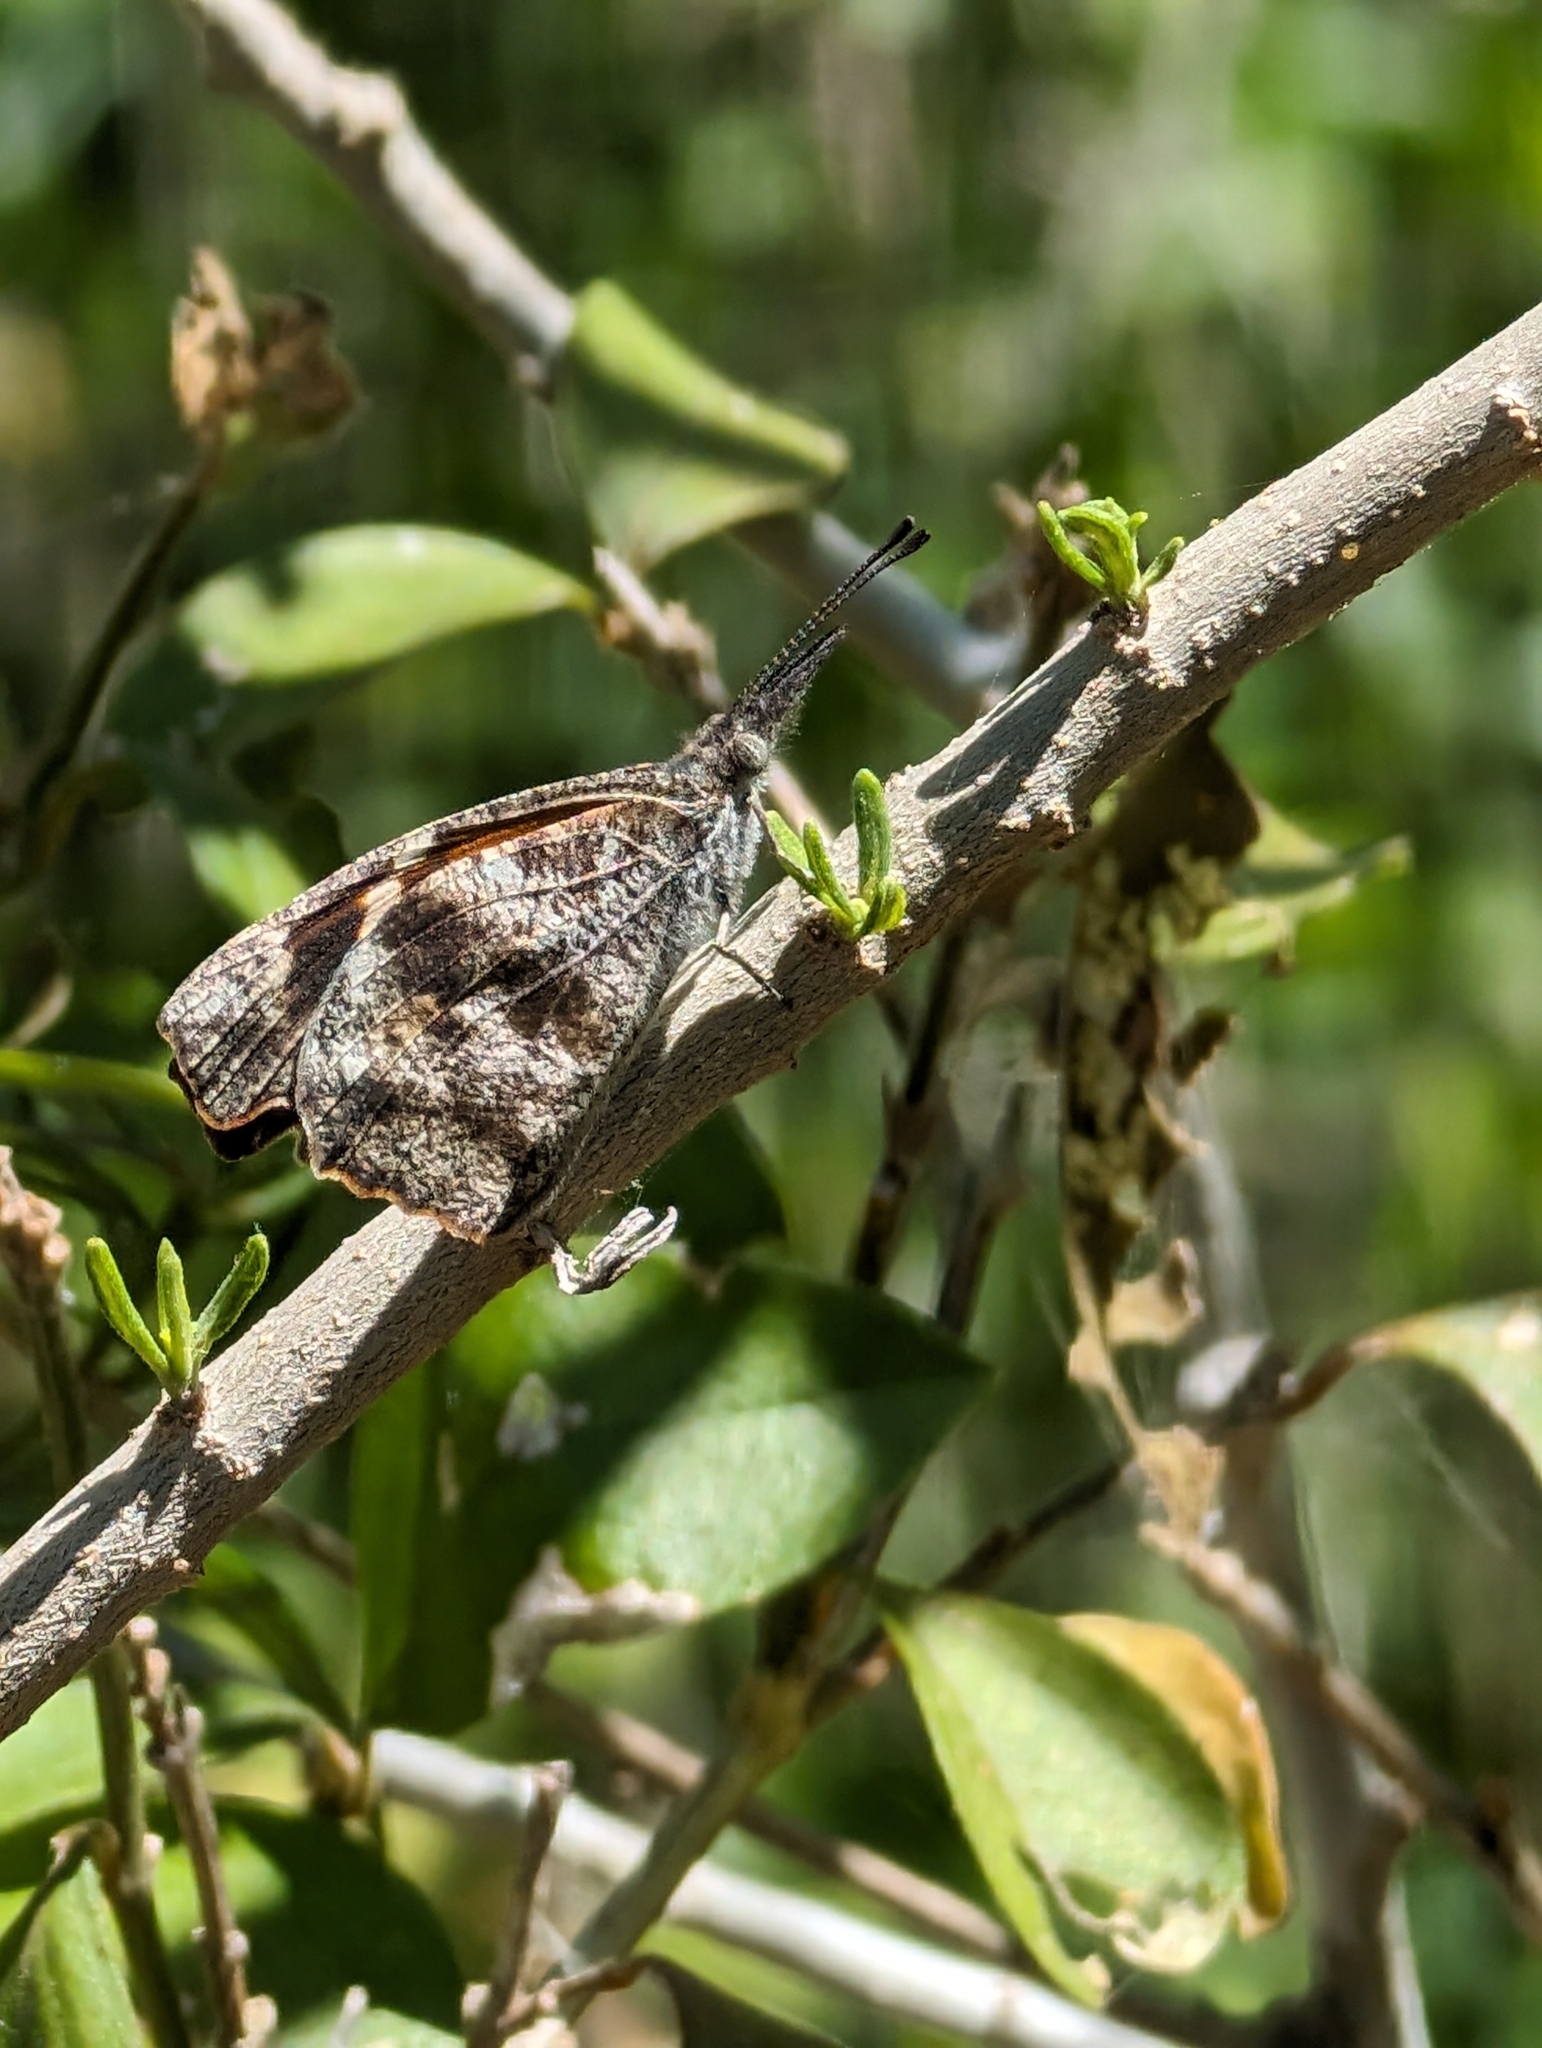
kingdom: Animalia
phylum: Arthropoda
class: Insecta
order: Lepidoptera
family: Nymphalidae
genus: Libytheana
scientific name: Libytheana carinenta
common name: American snout
